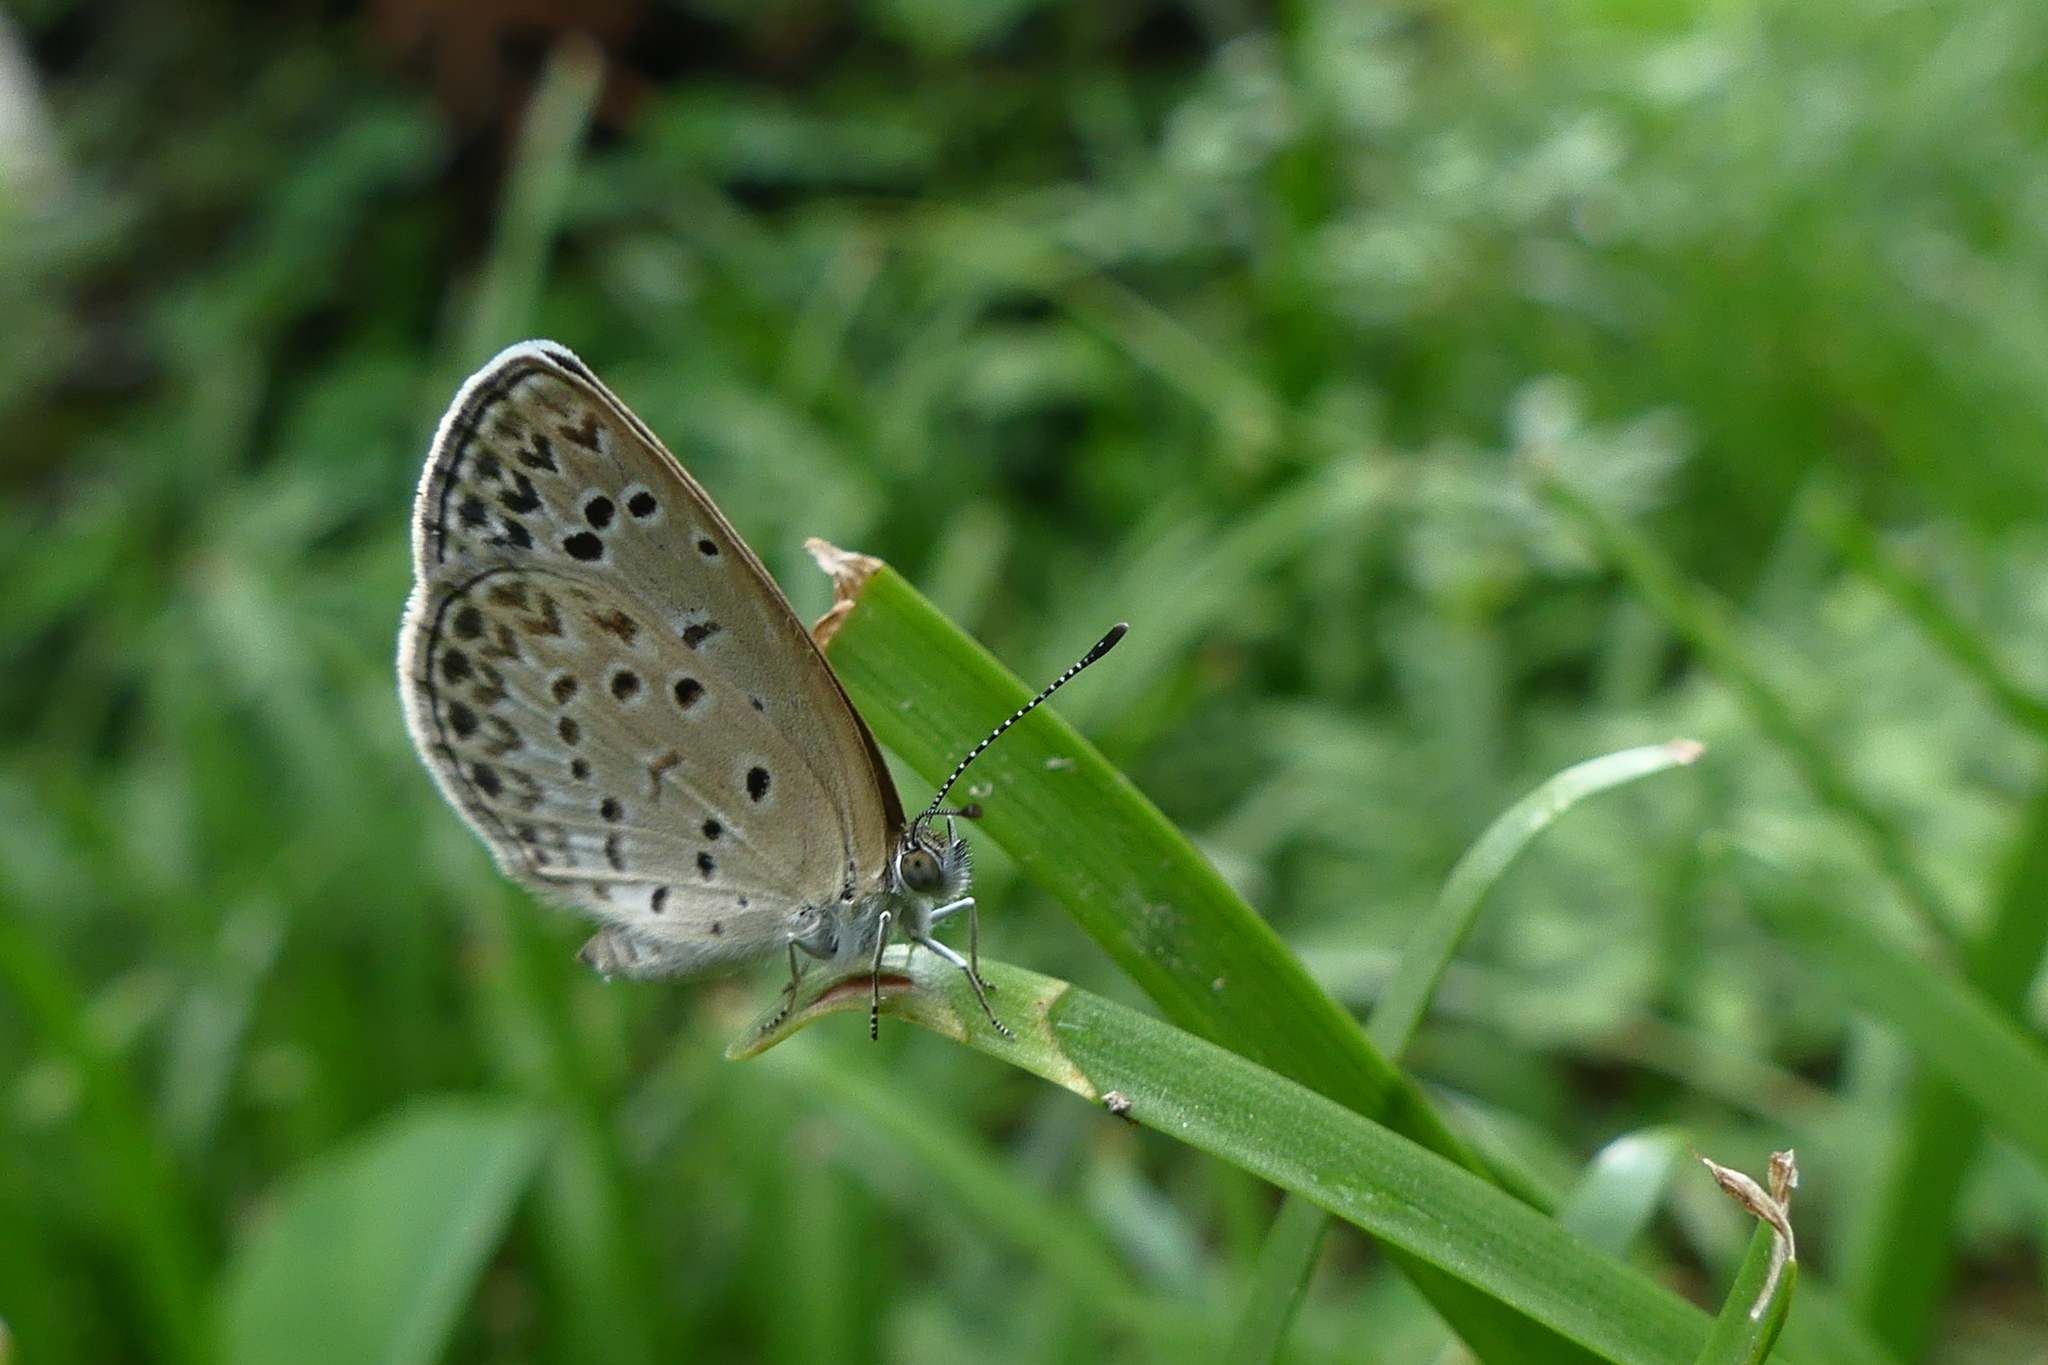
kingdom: Animalia
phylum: Arthropoda
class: Insecta
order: Lepidoptera
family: Lycaenidae
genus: Pseudozizeeria
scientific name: Pseudozizeeria maha
